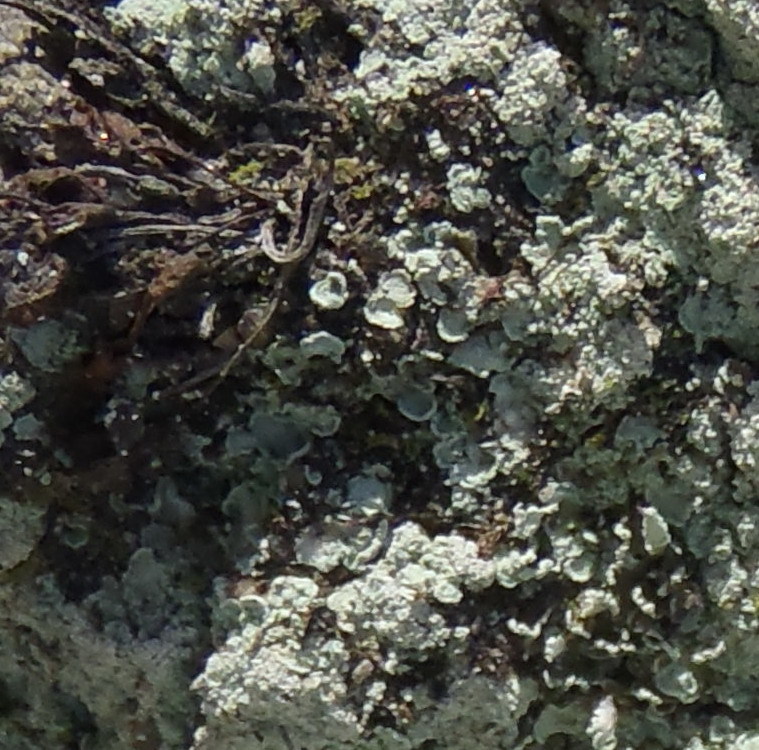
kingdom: Fungi
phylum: Ascomycota
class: Eurotiomycetes
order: Verrucariales
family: Verrucariaceae
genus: Normandina
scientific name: Normandina pulchella
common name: Elf ears lichen
